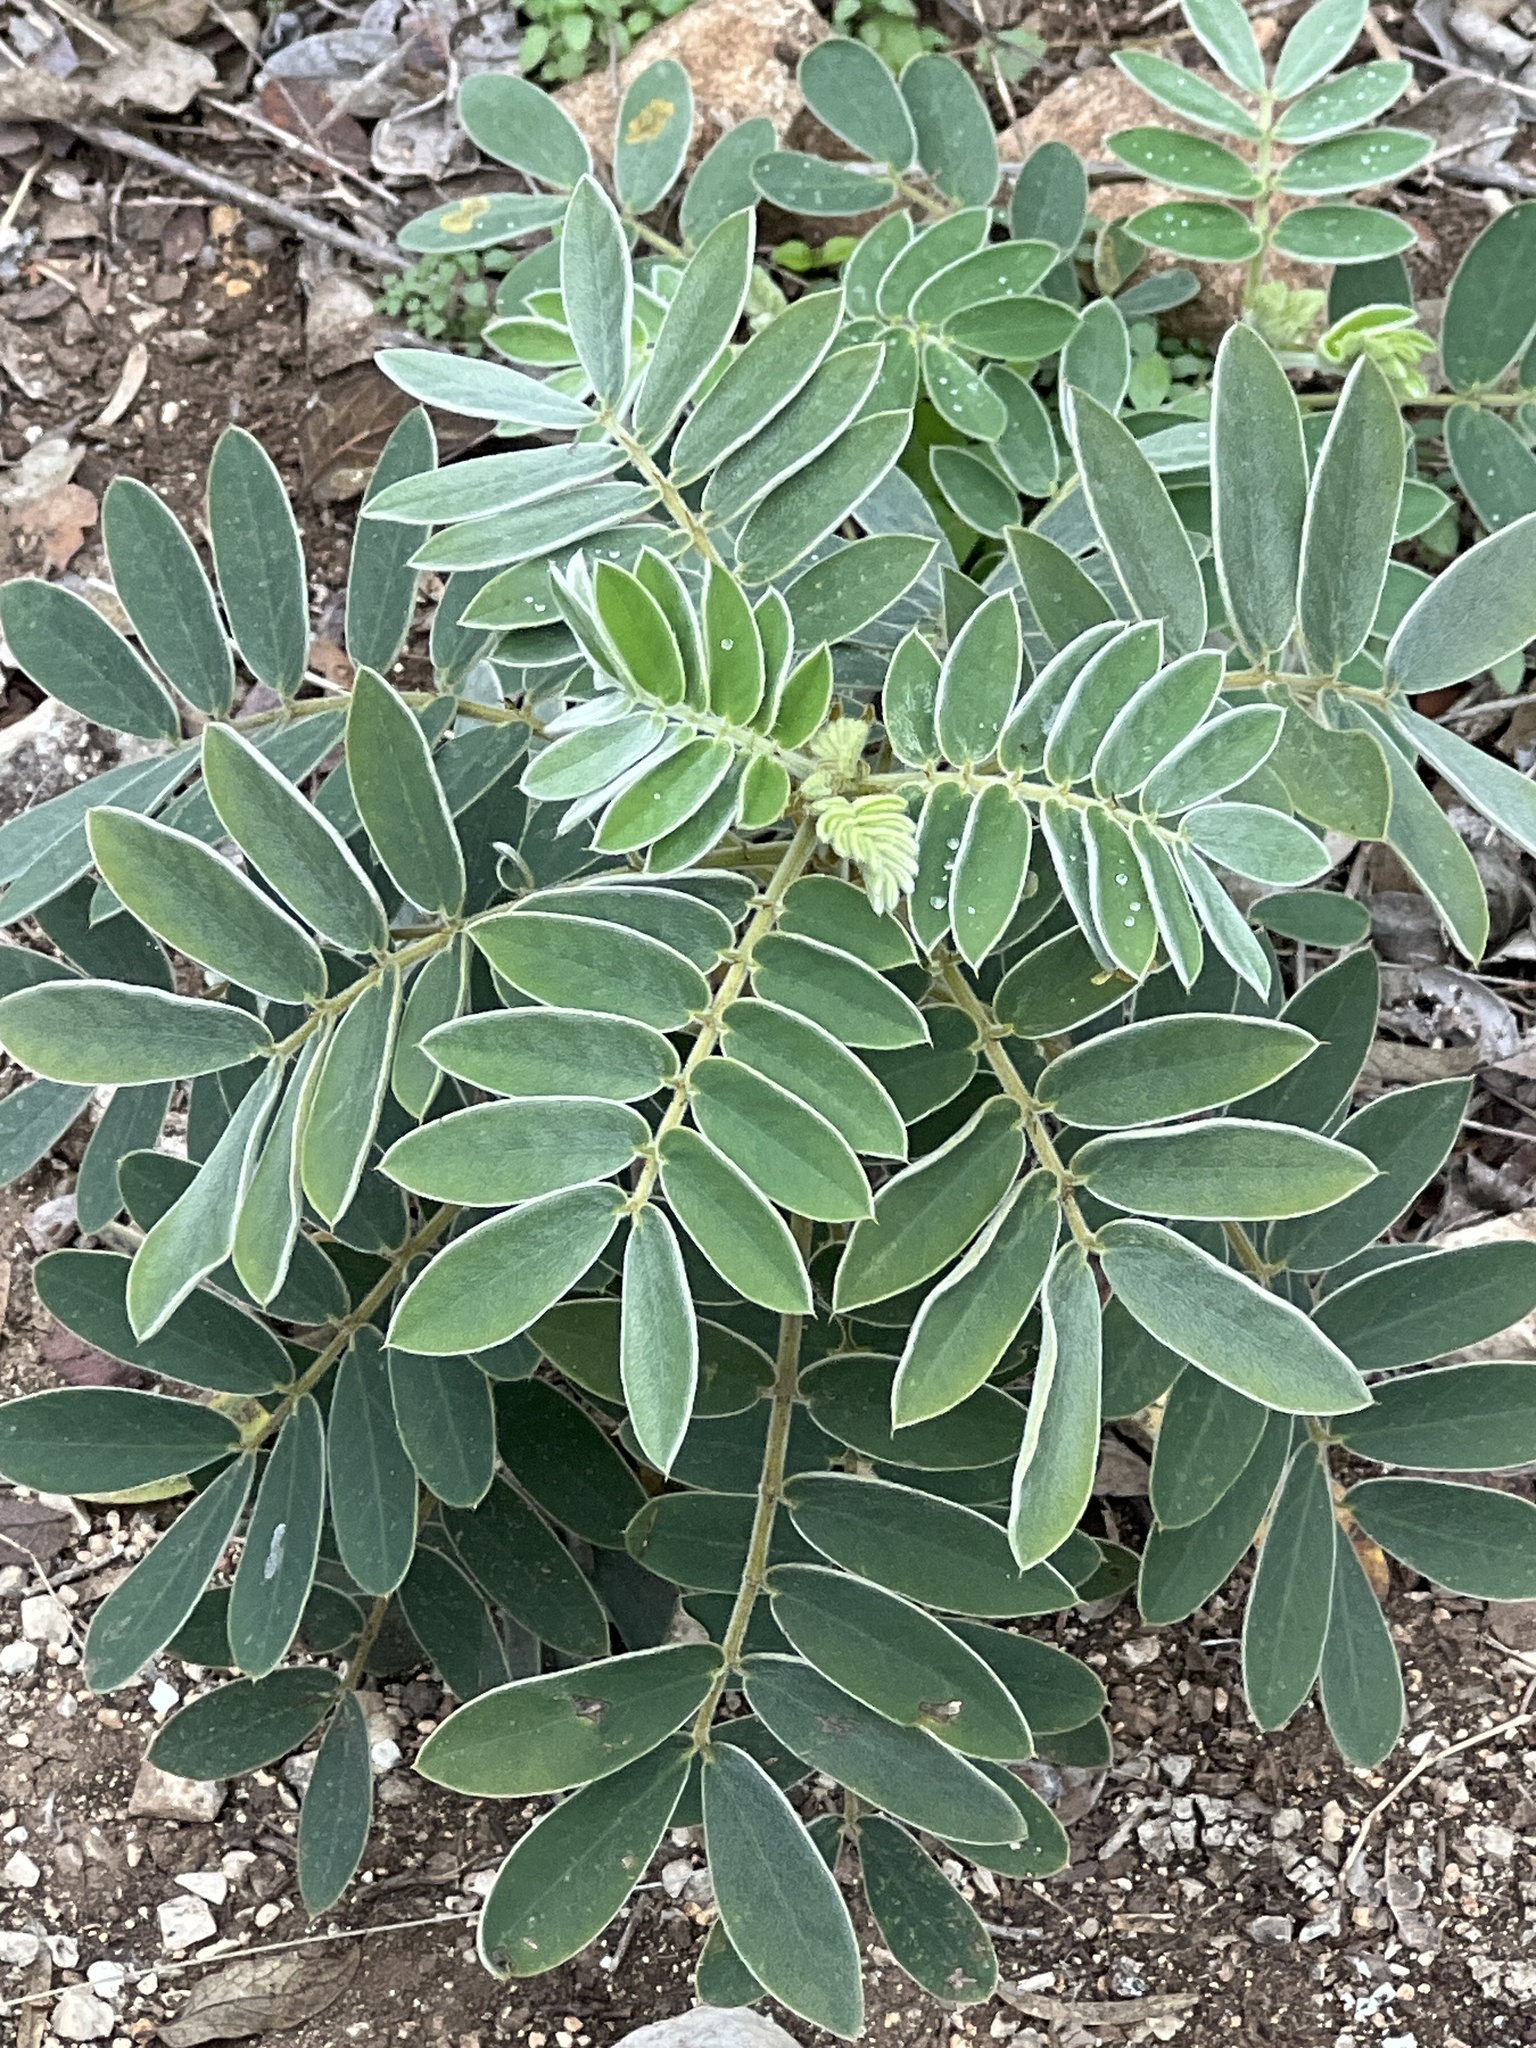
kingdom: Plantae
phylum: Tracheophyta
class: Magnoliopsida
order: Fabales
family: Fabaceae
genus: Senna
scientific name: Senna lindheimeriana
